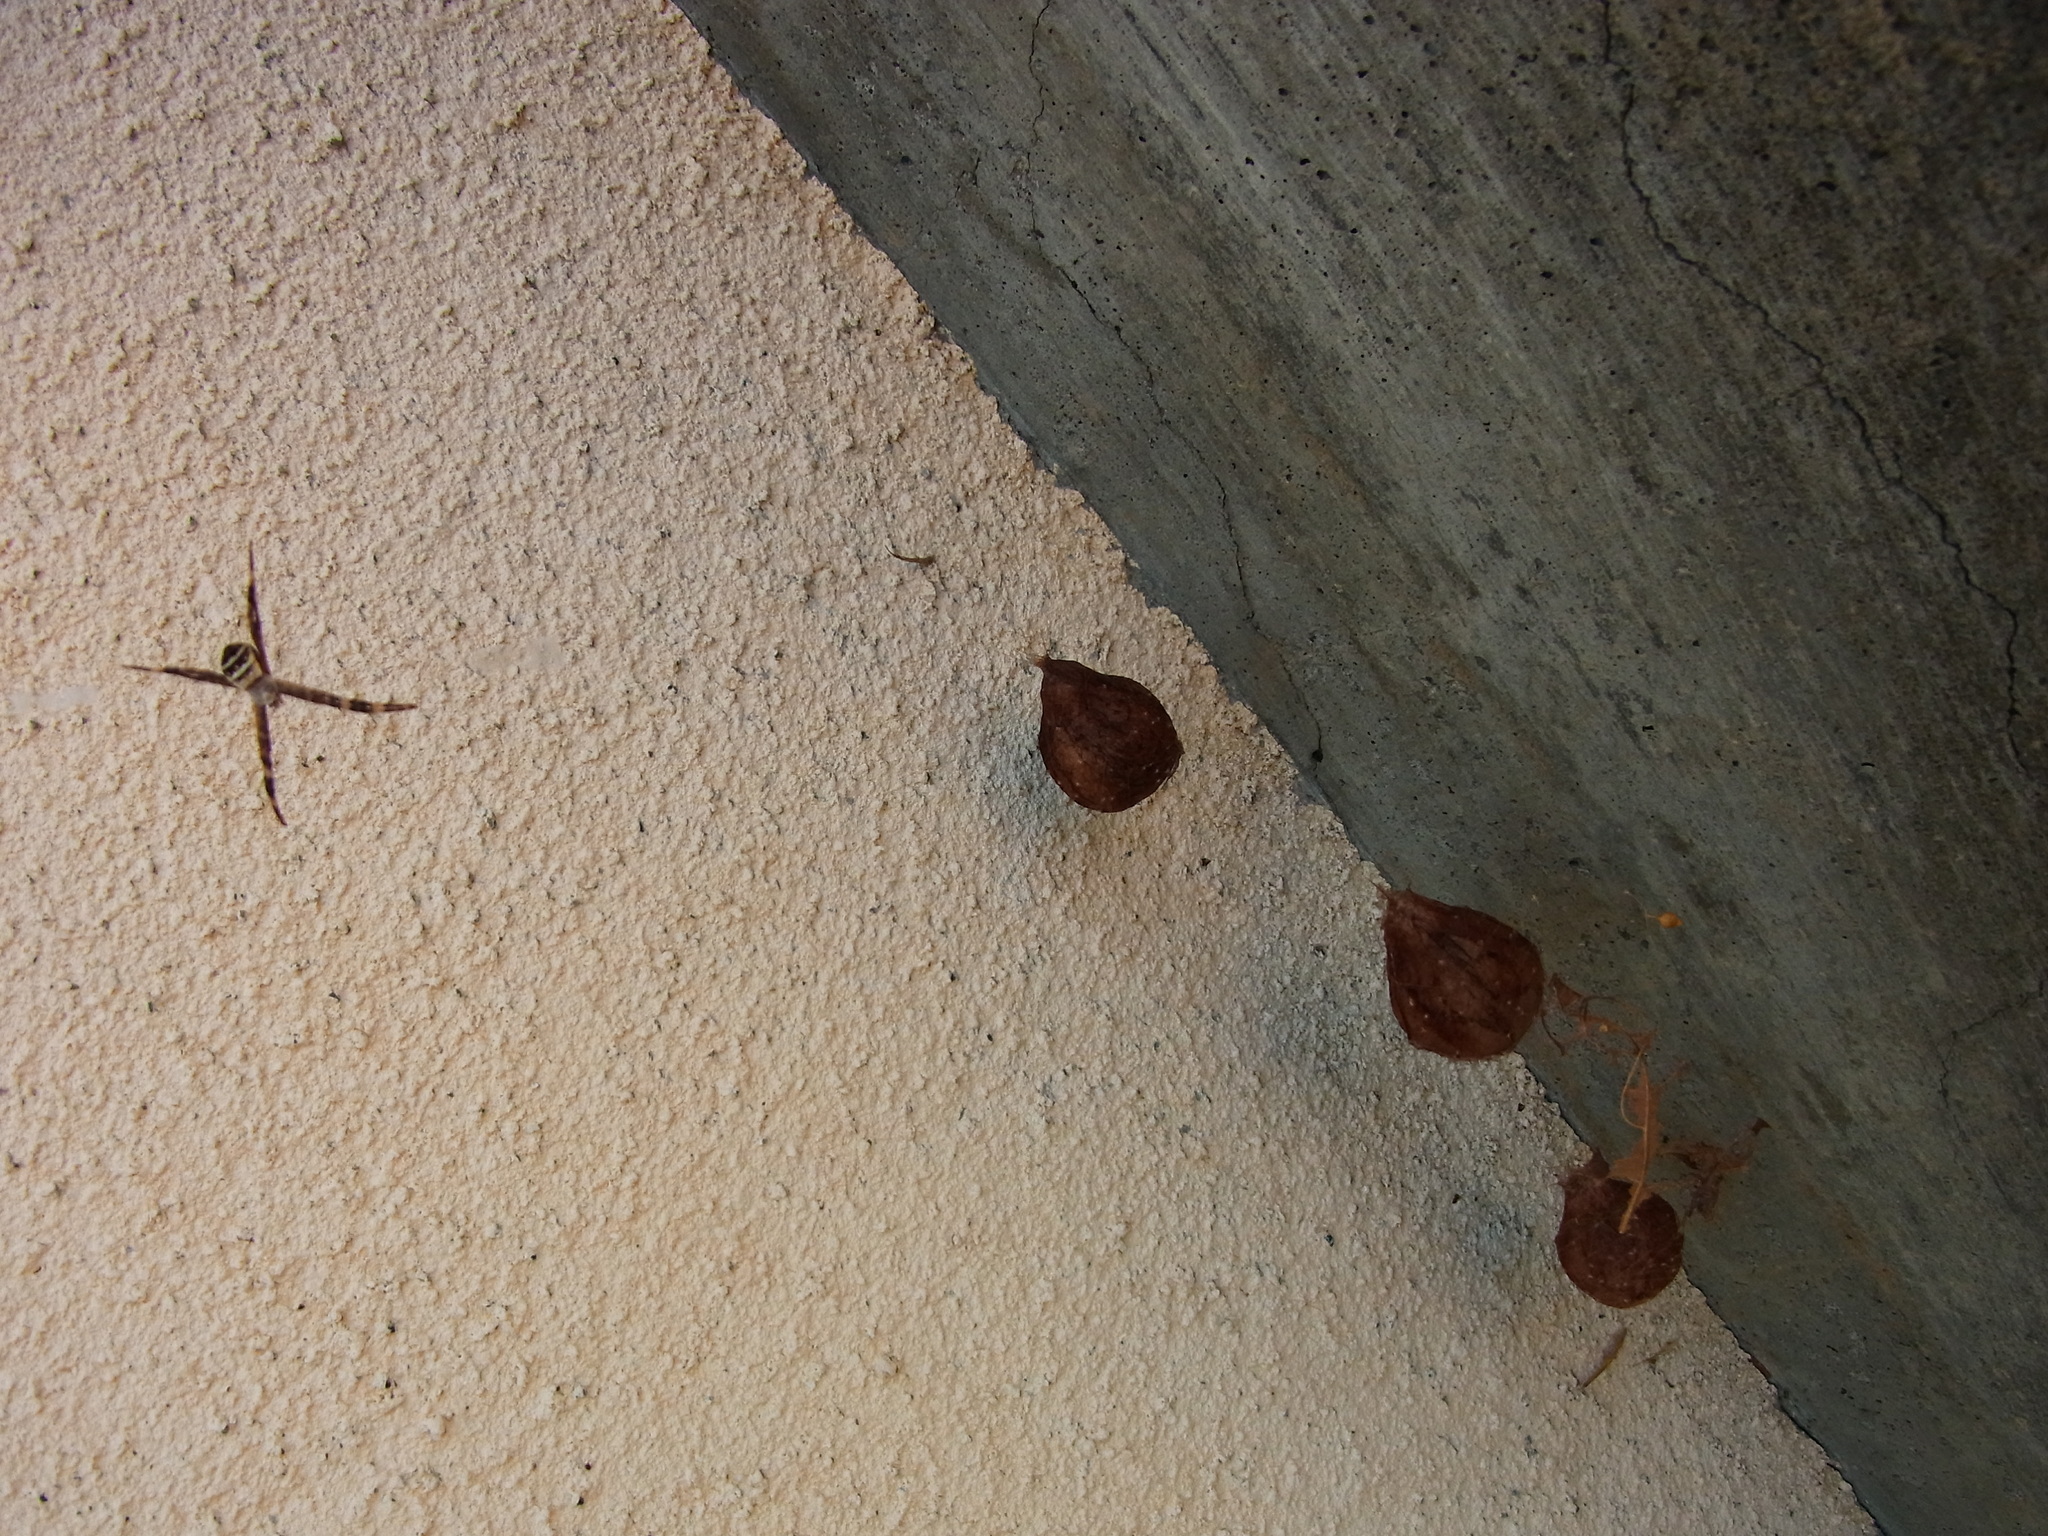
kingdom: Animalia
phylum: Arthropoda
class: Arachnida
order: Araneae
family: Araneidae
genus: Argiope
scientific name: Argiope amoena
